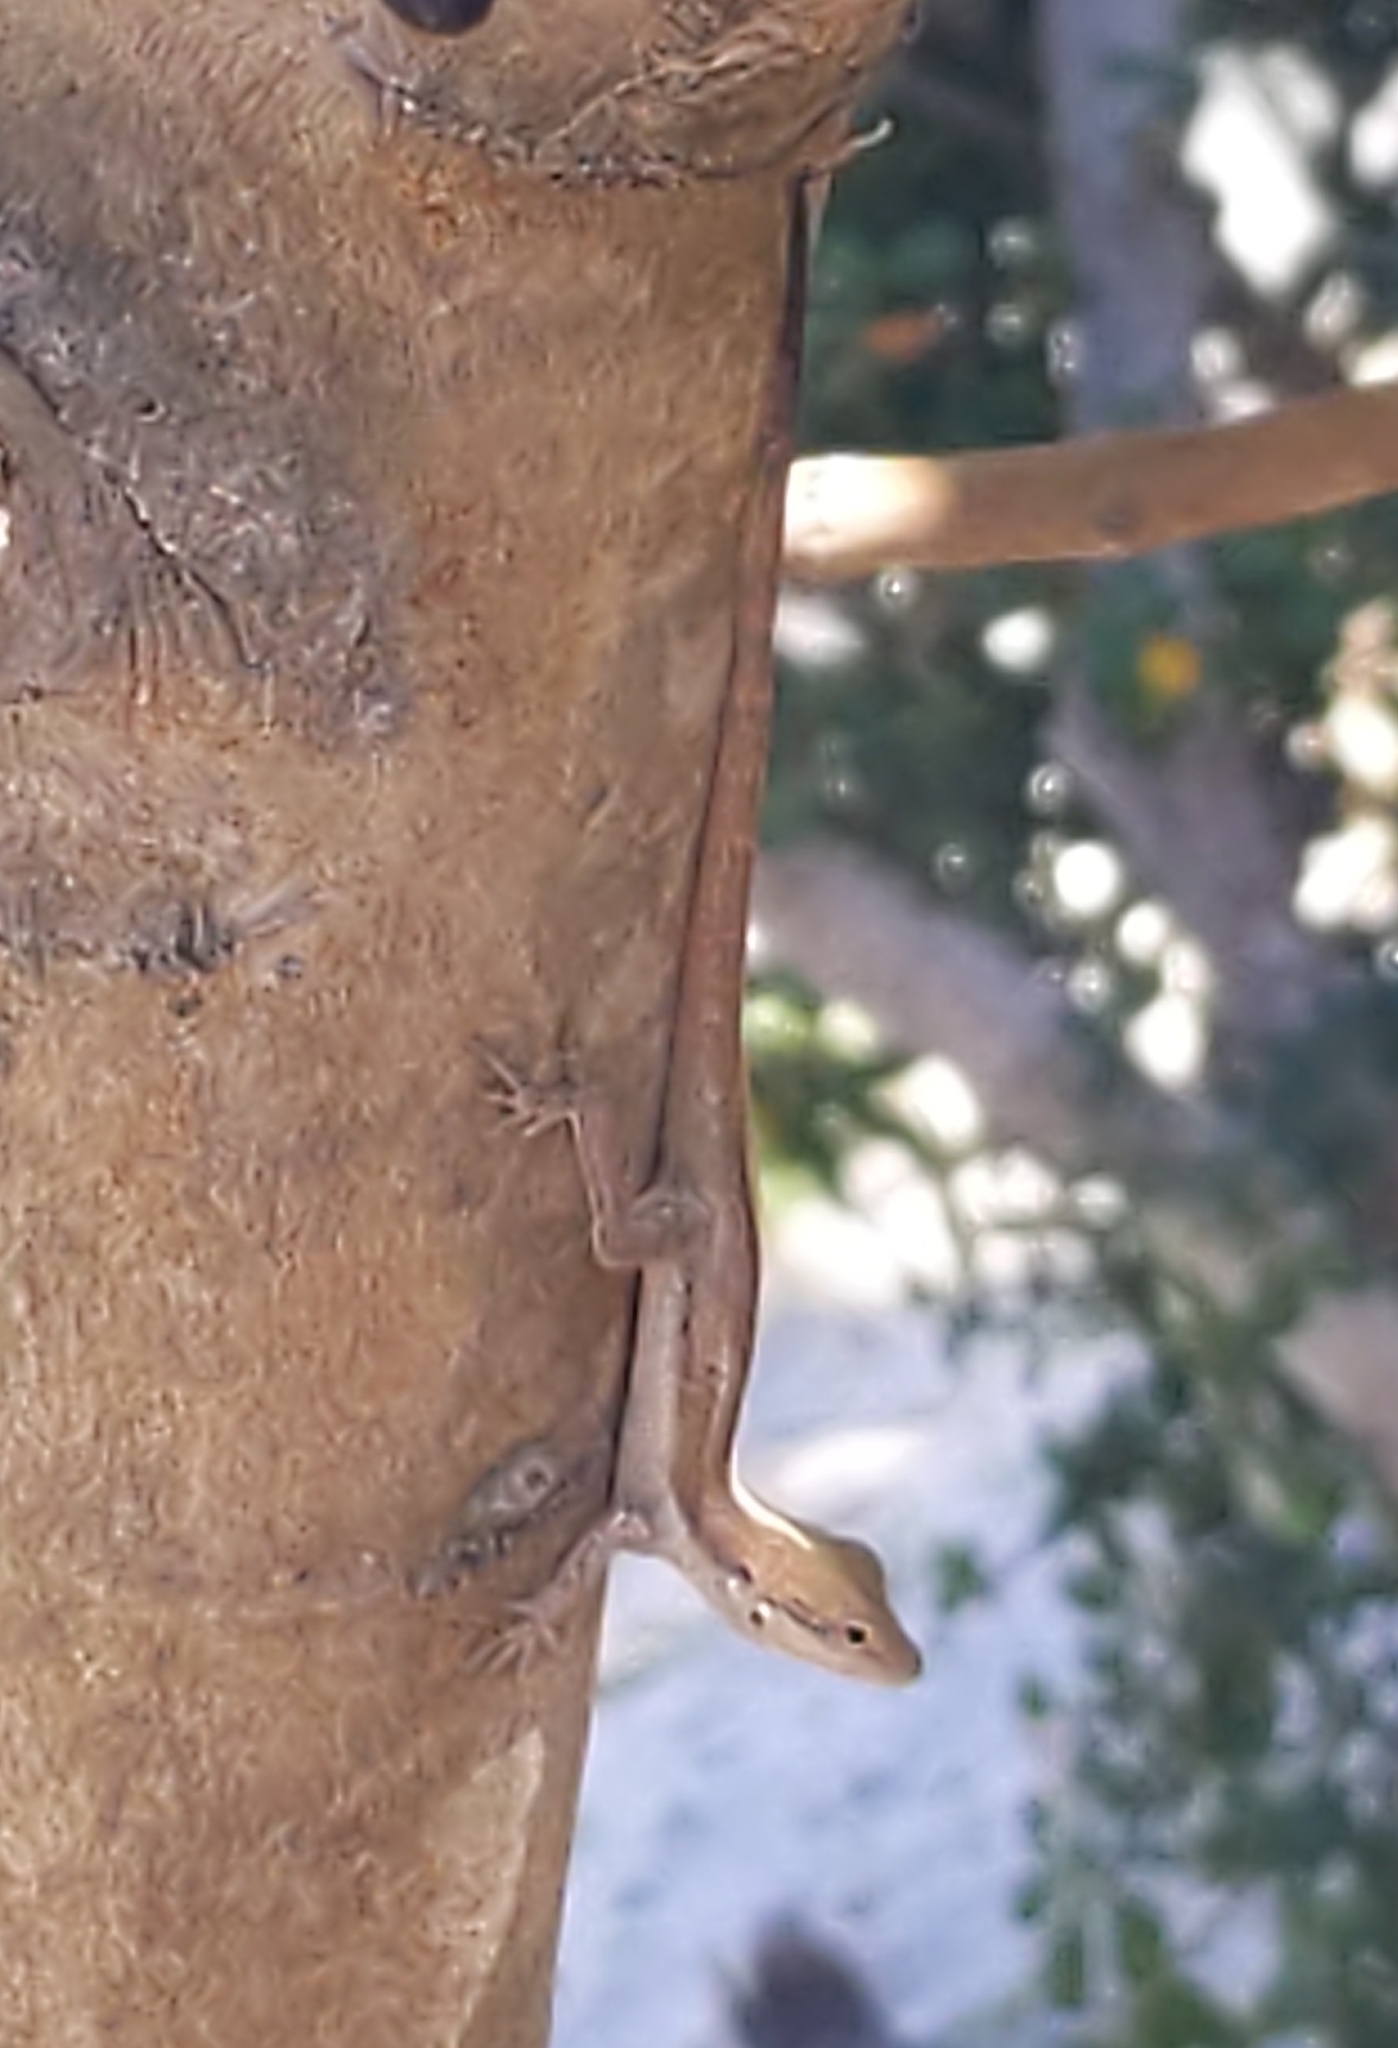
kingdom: Animalia
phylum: Chordata
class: Squamata
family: Dactyloidae
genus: Anolis
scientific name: Anolis scriptus
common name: Silver key anole
